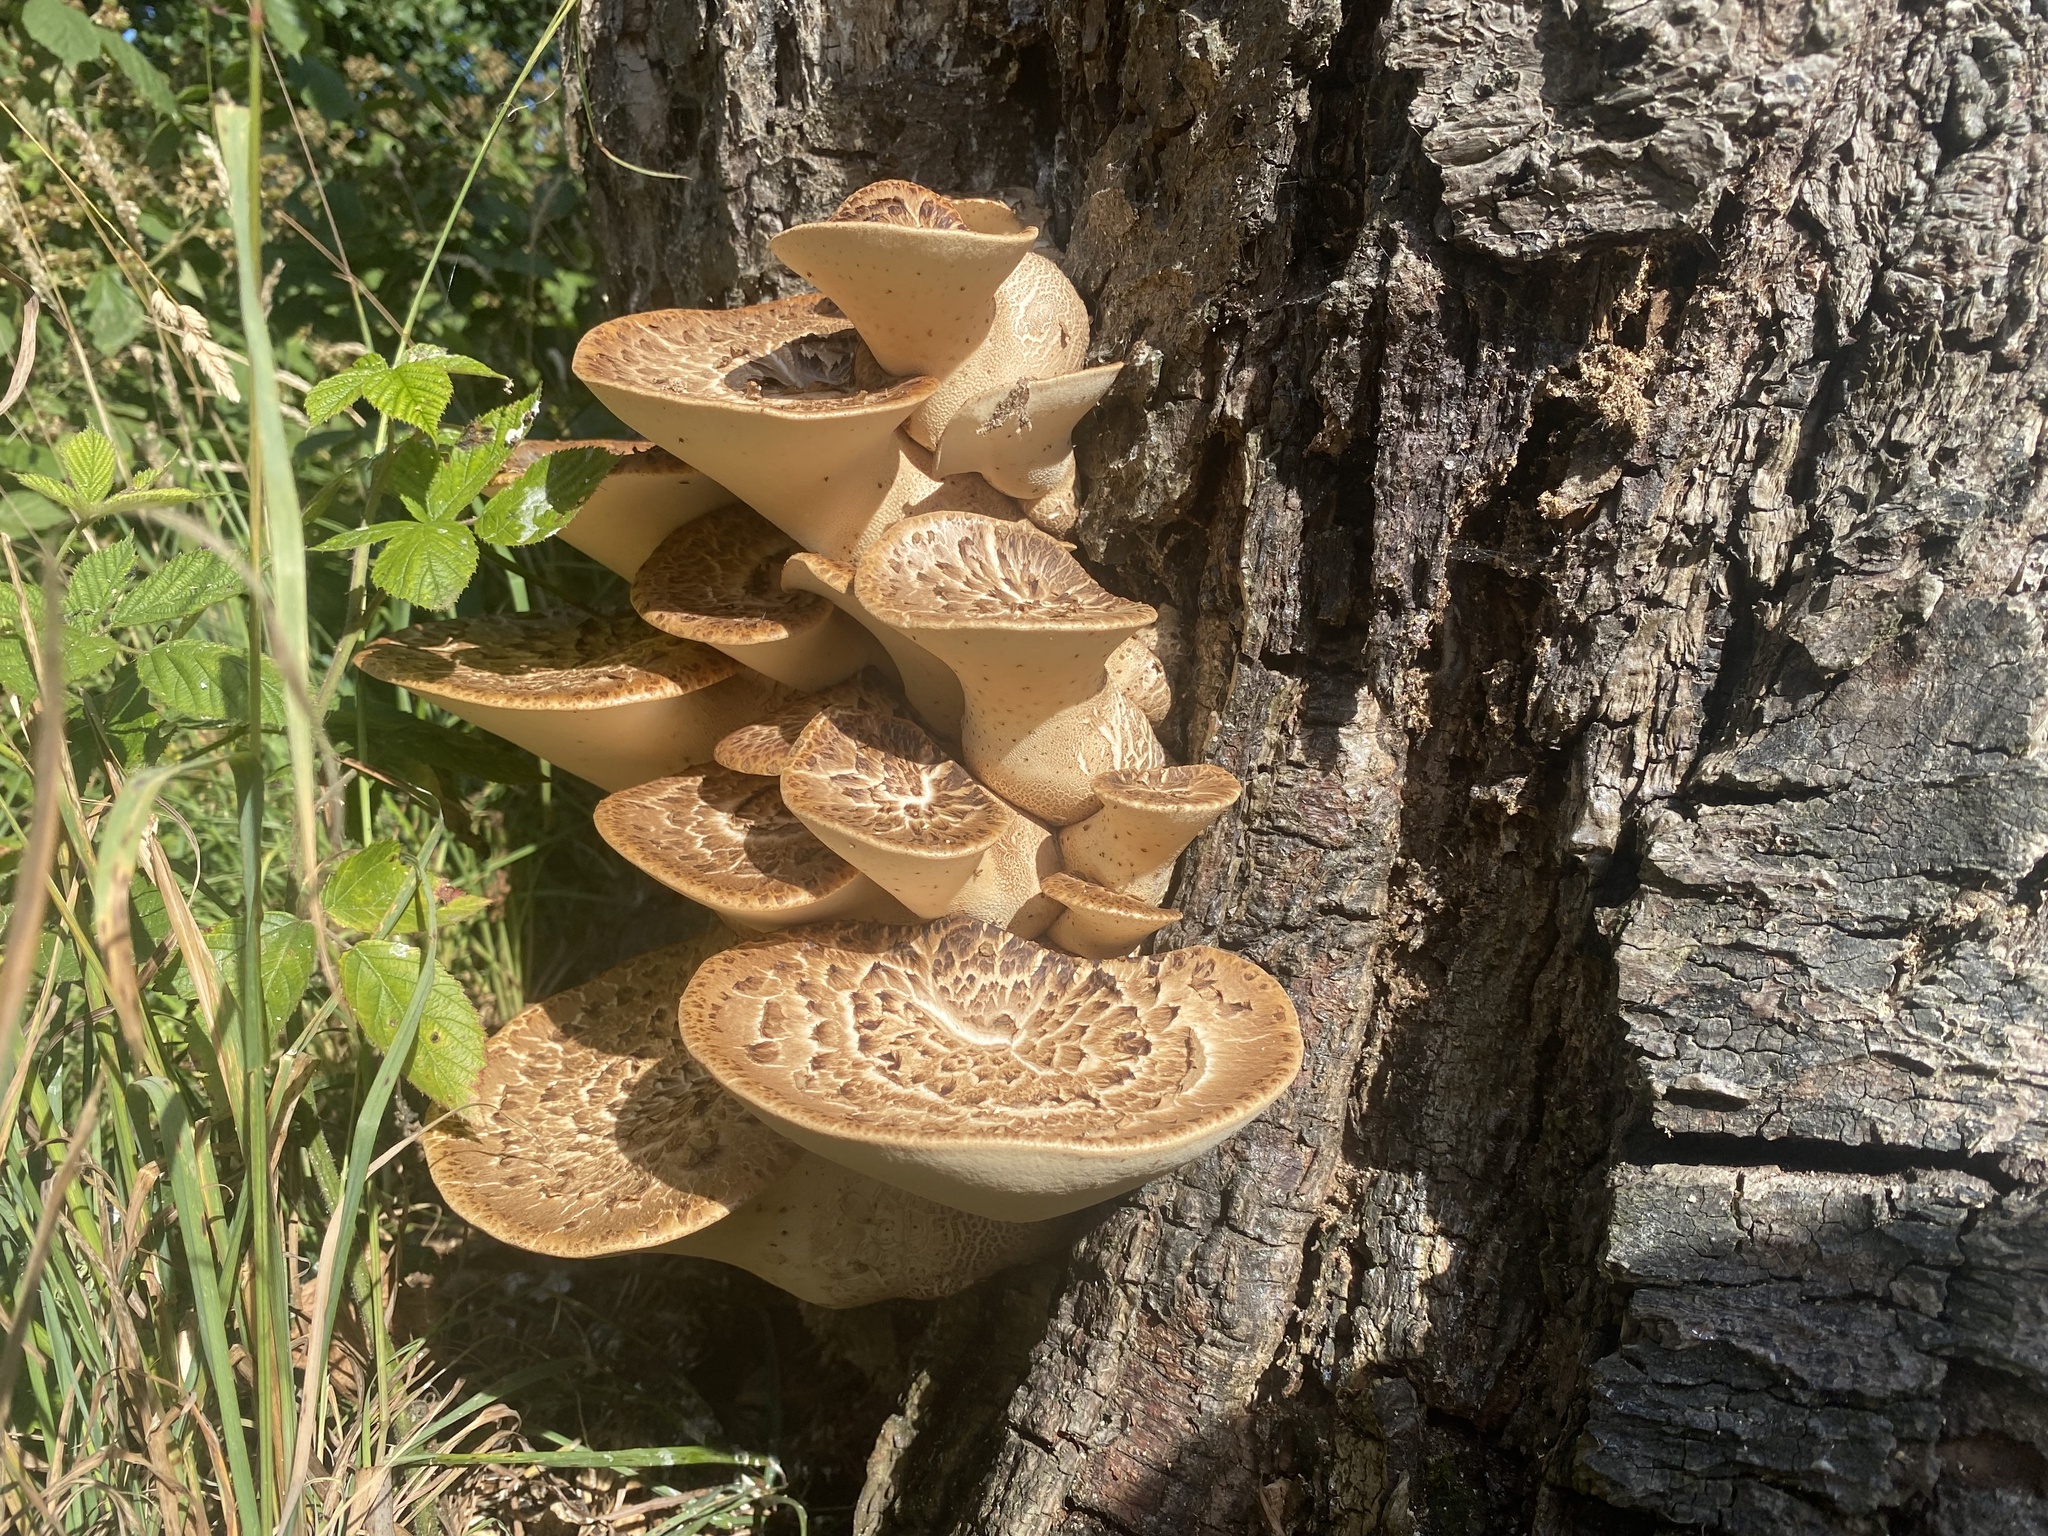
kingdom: Fungi
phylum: Basidiomycota
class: Agaricomycetes
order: Polyporales
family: Polyporaceae
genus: Cerioporus
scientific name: Cerioporus squamosus
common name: Dryad's saddle
